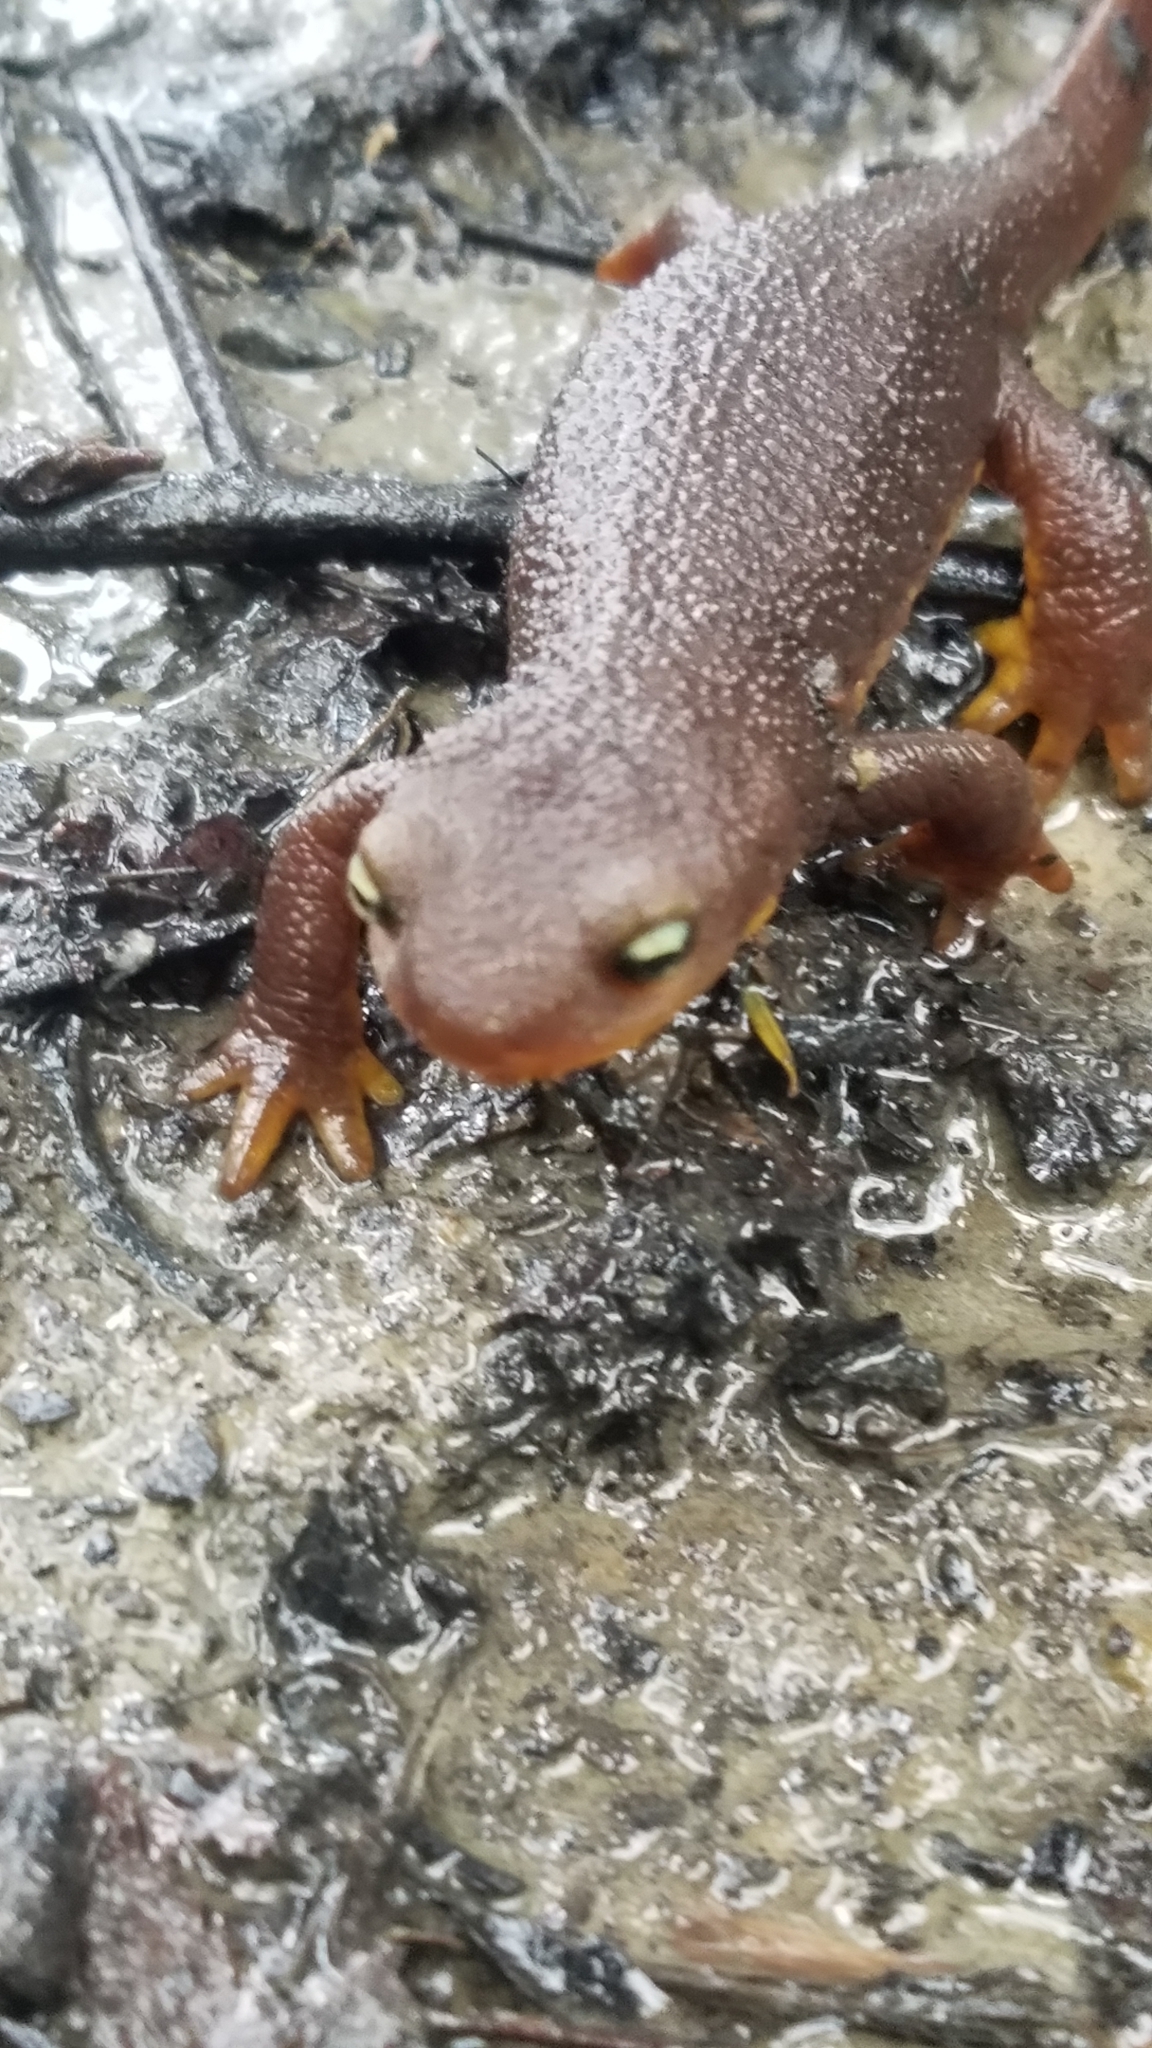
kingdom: Animalia
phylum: Chordata
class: Amphibia
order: Caudata
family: Salamandridae
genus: Taricha
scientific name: Taricha torosa
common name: California newt
